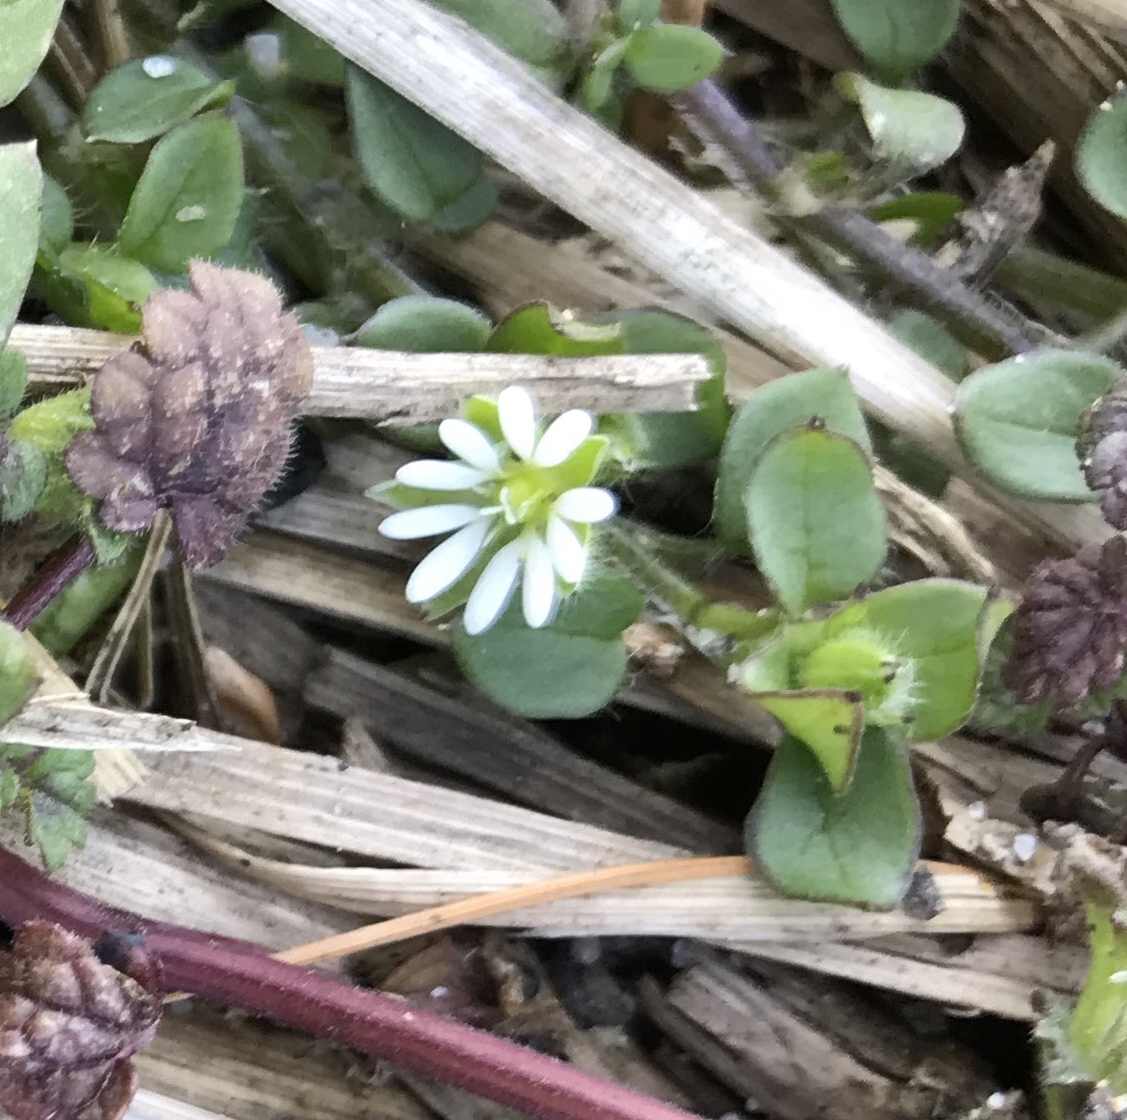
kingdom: Plantae
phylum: Tracheophyta
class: Magnoliopsida
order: Caryophyllales
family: Caryophyllaceae
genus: Stellaria
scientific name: Stellaria media
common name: Common chickweed
